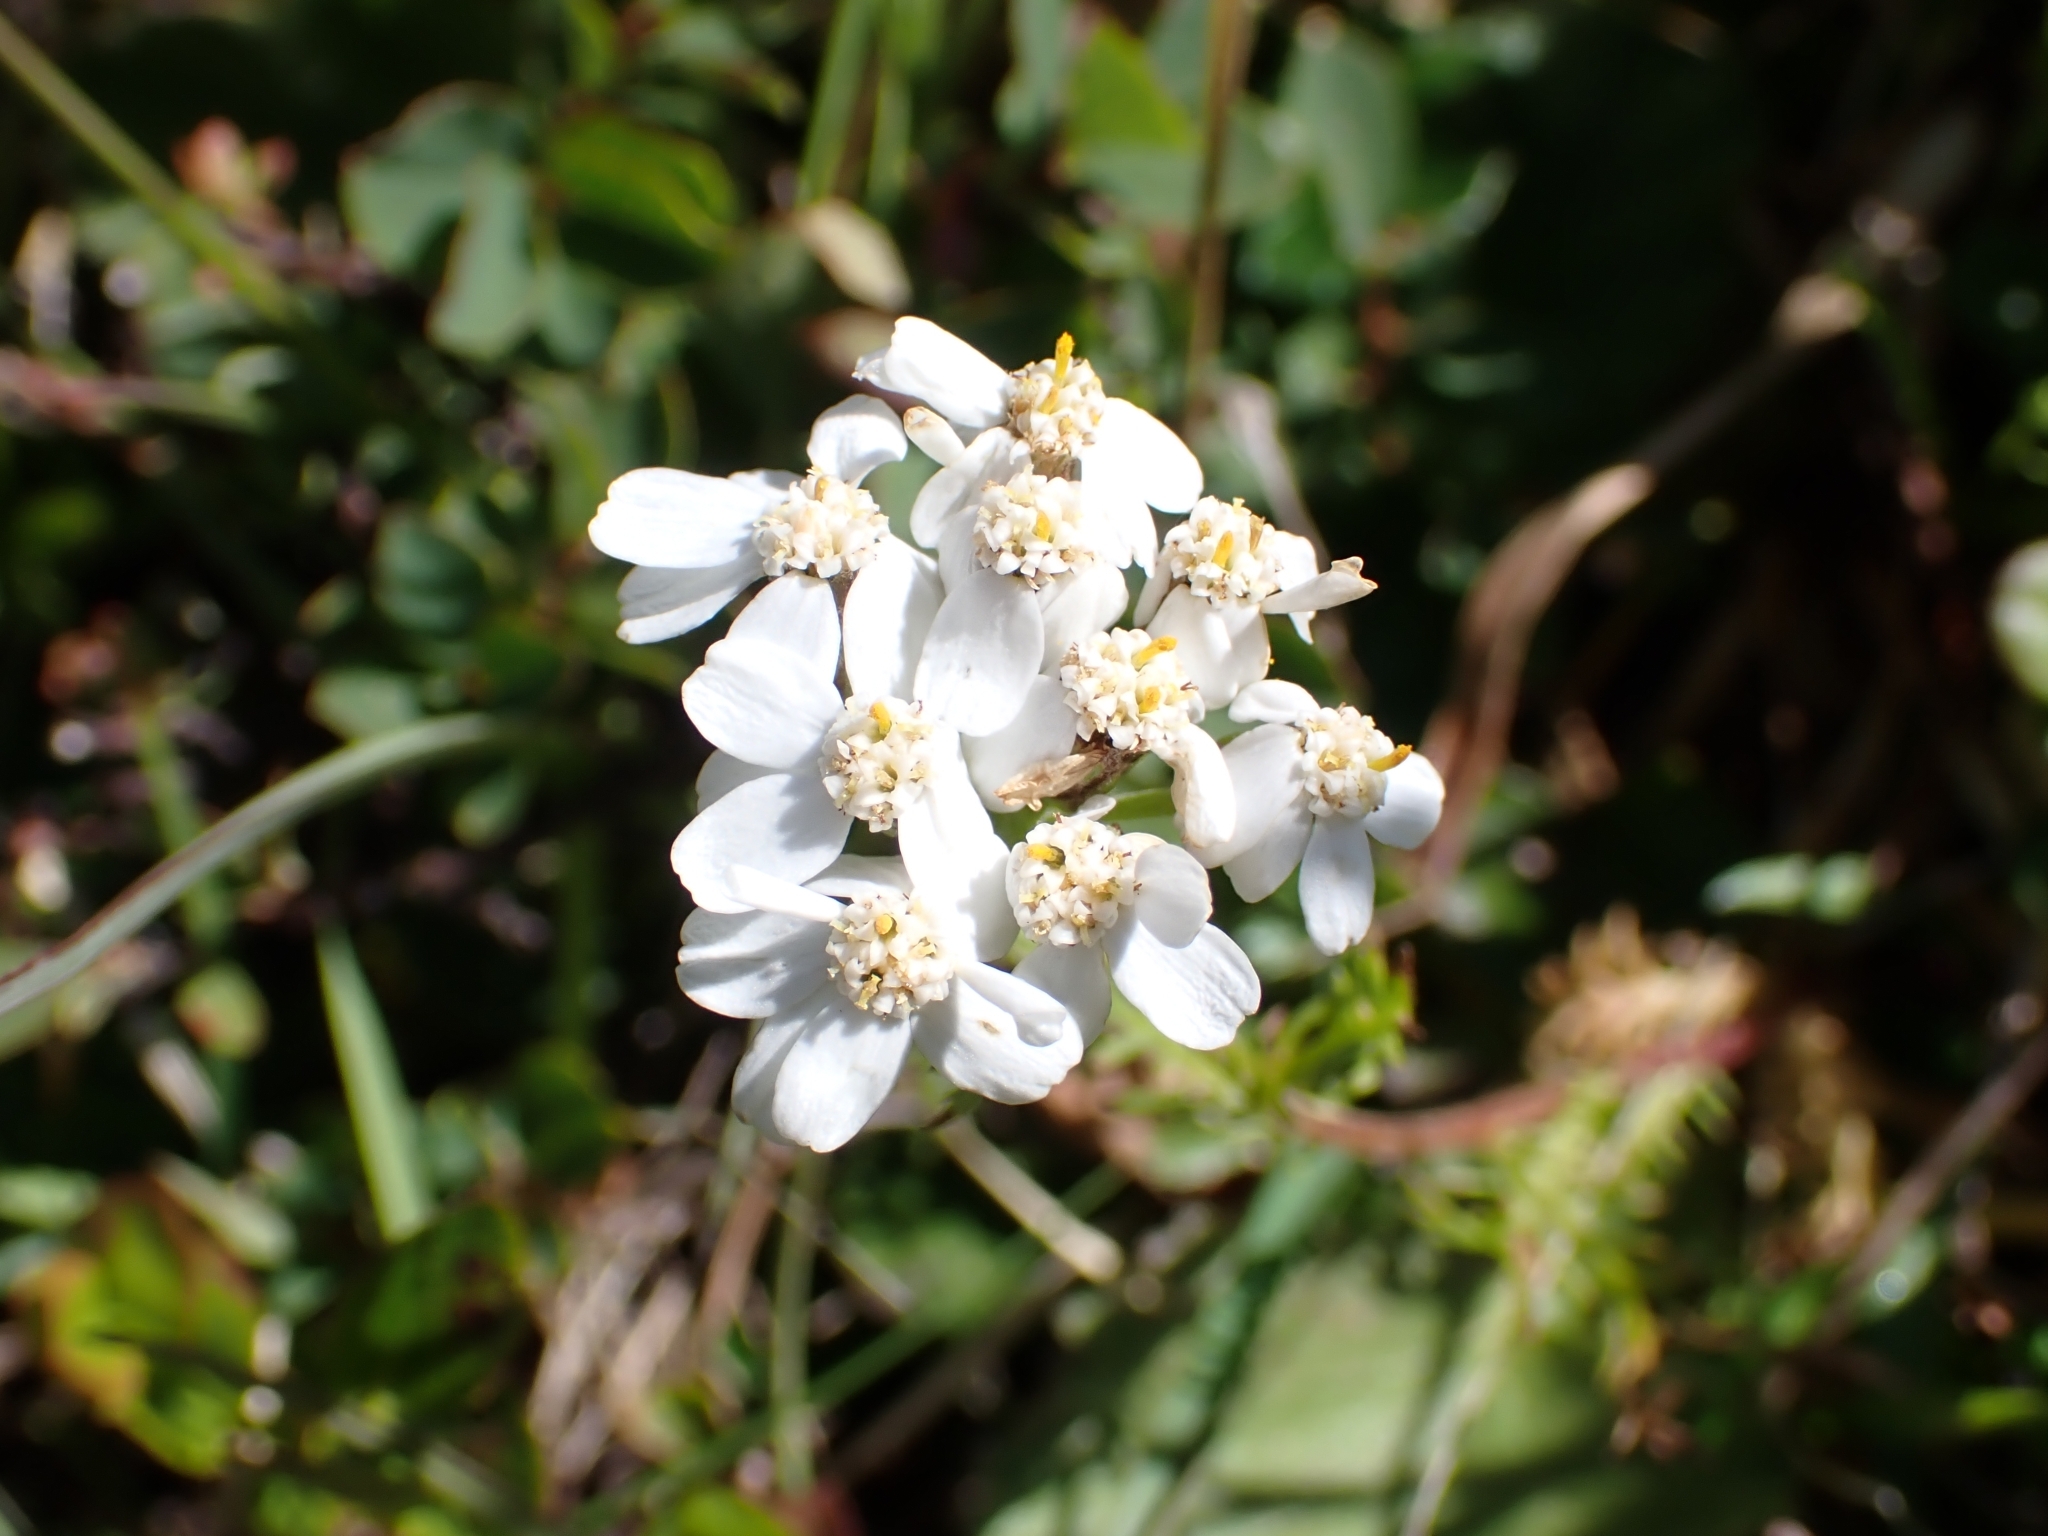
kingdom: Plantae
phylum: Tracheophyta
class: Magnoliopsida
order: Asterales
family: Asteraceae
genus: Achillea
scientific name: Achillea erba-rotta
